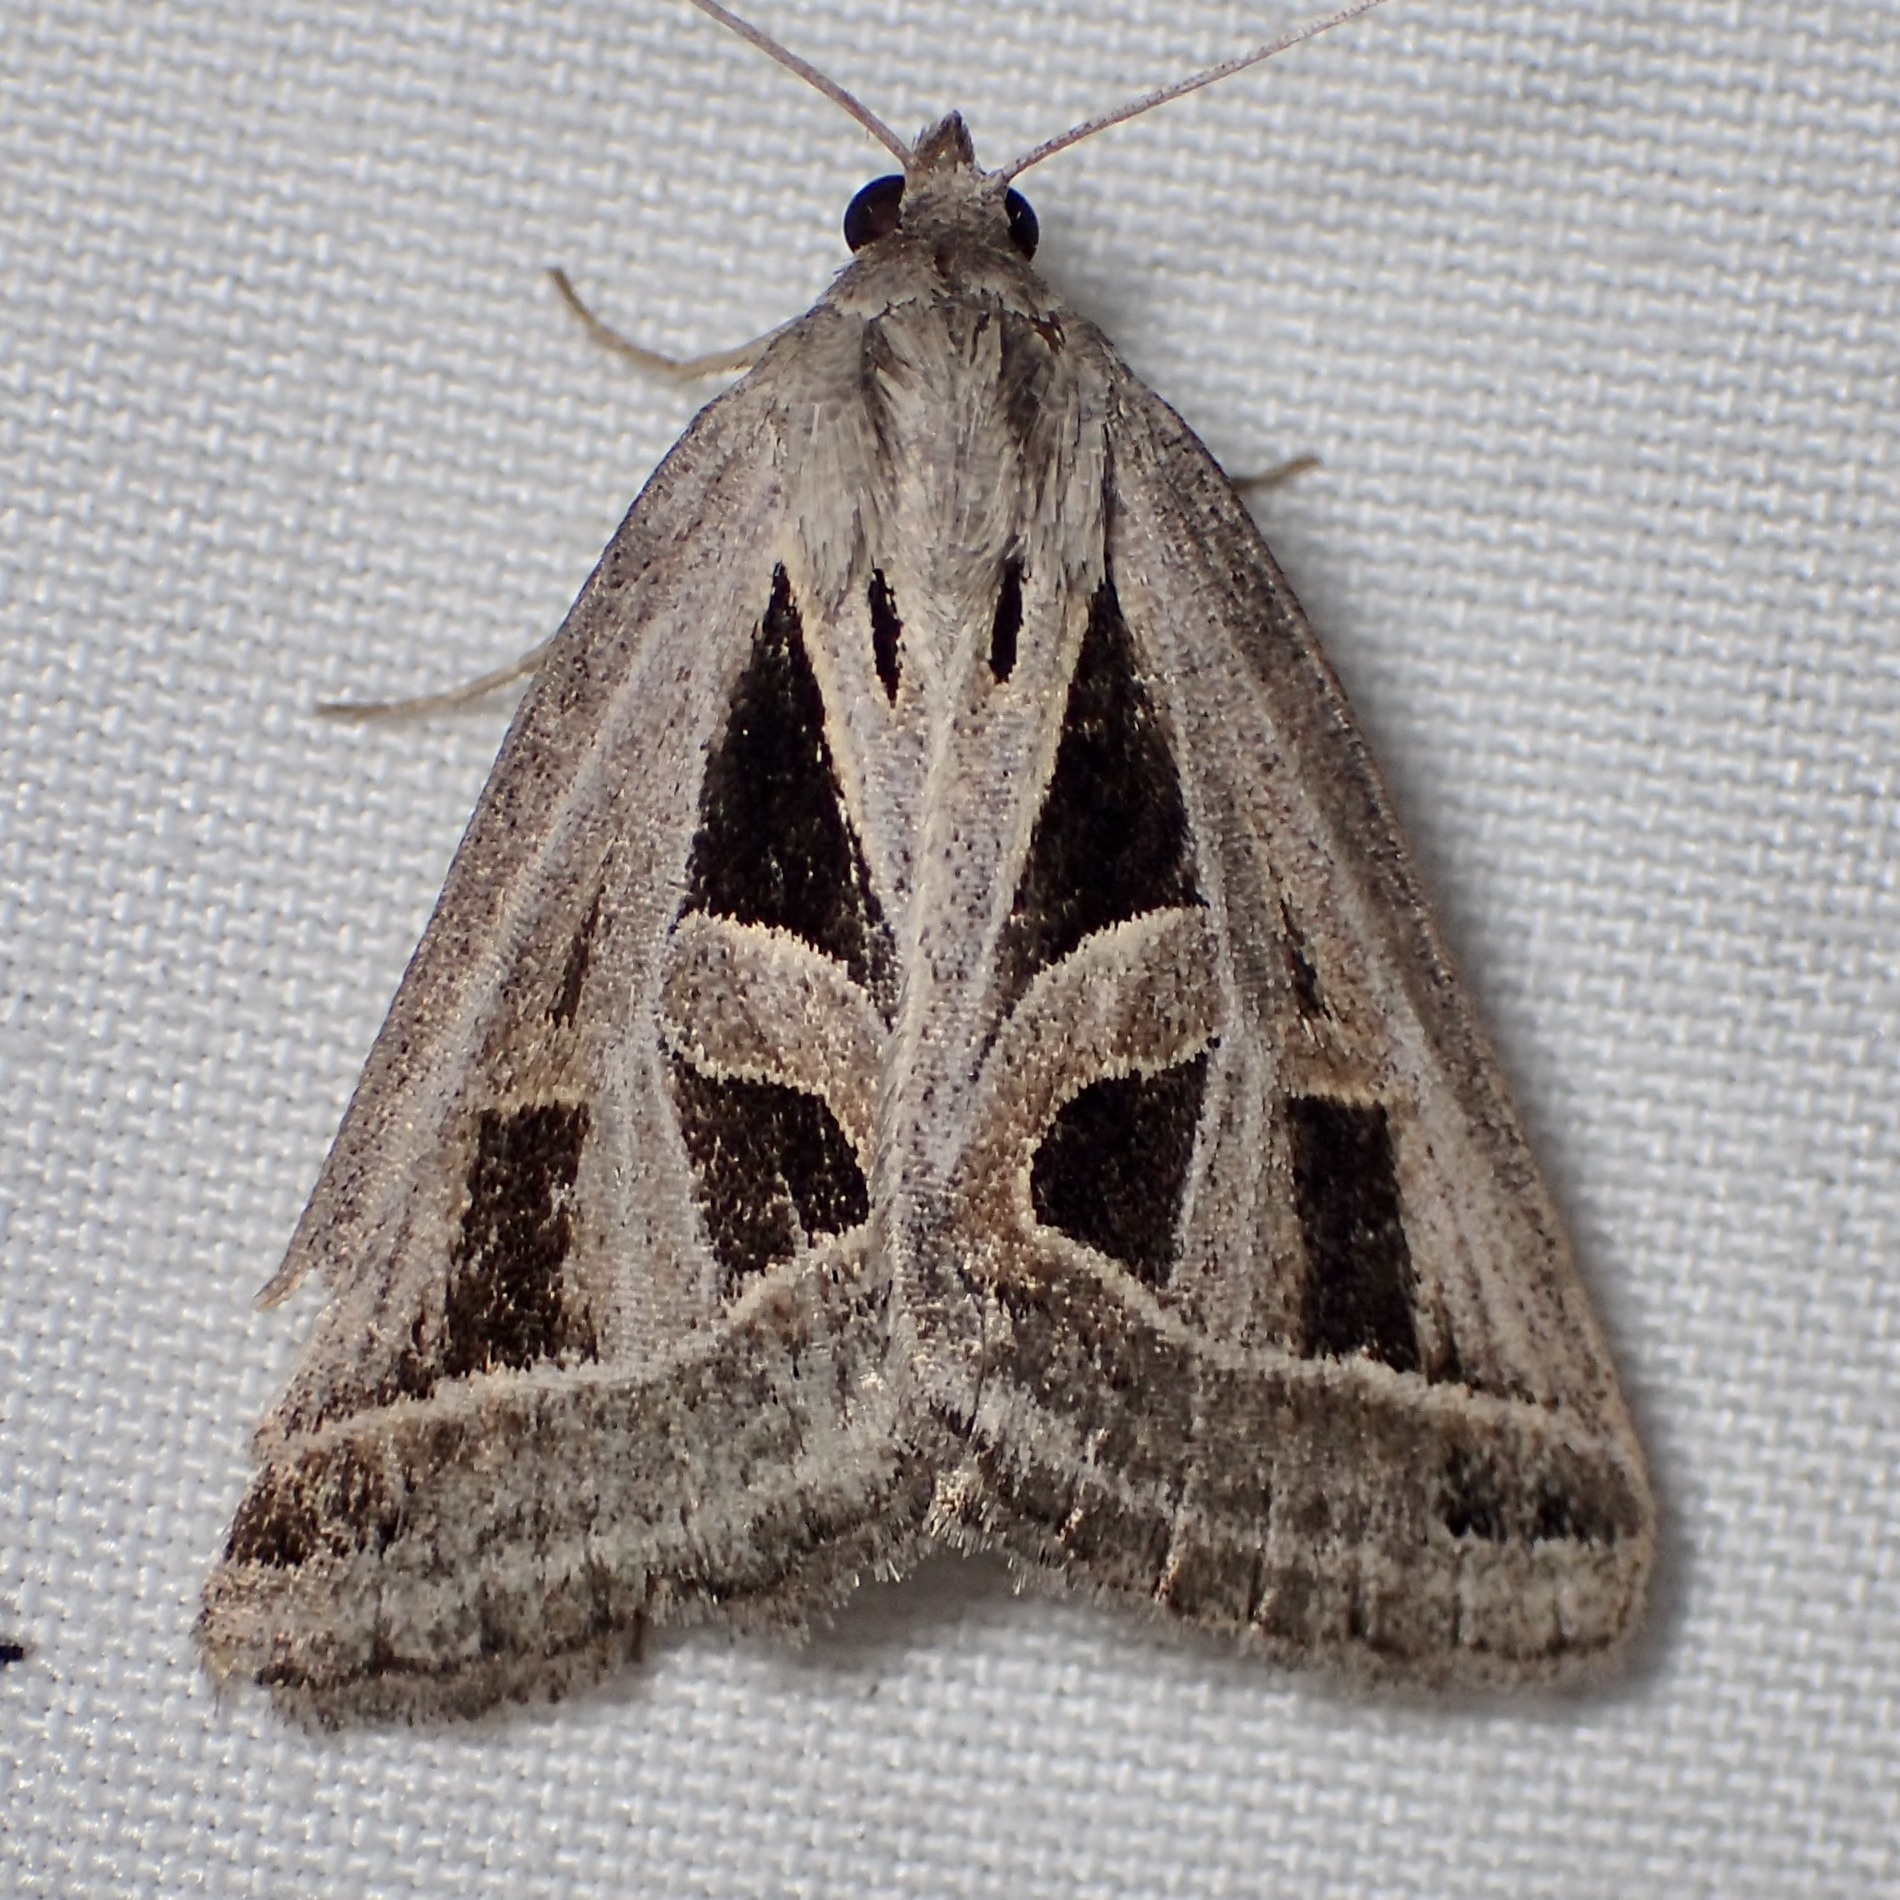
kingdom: Animalia
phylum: Arthropoda
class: Insecta
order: Lepidoptera
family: Erebidae
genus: Callistege
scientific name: Callistege diagonalis
